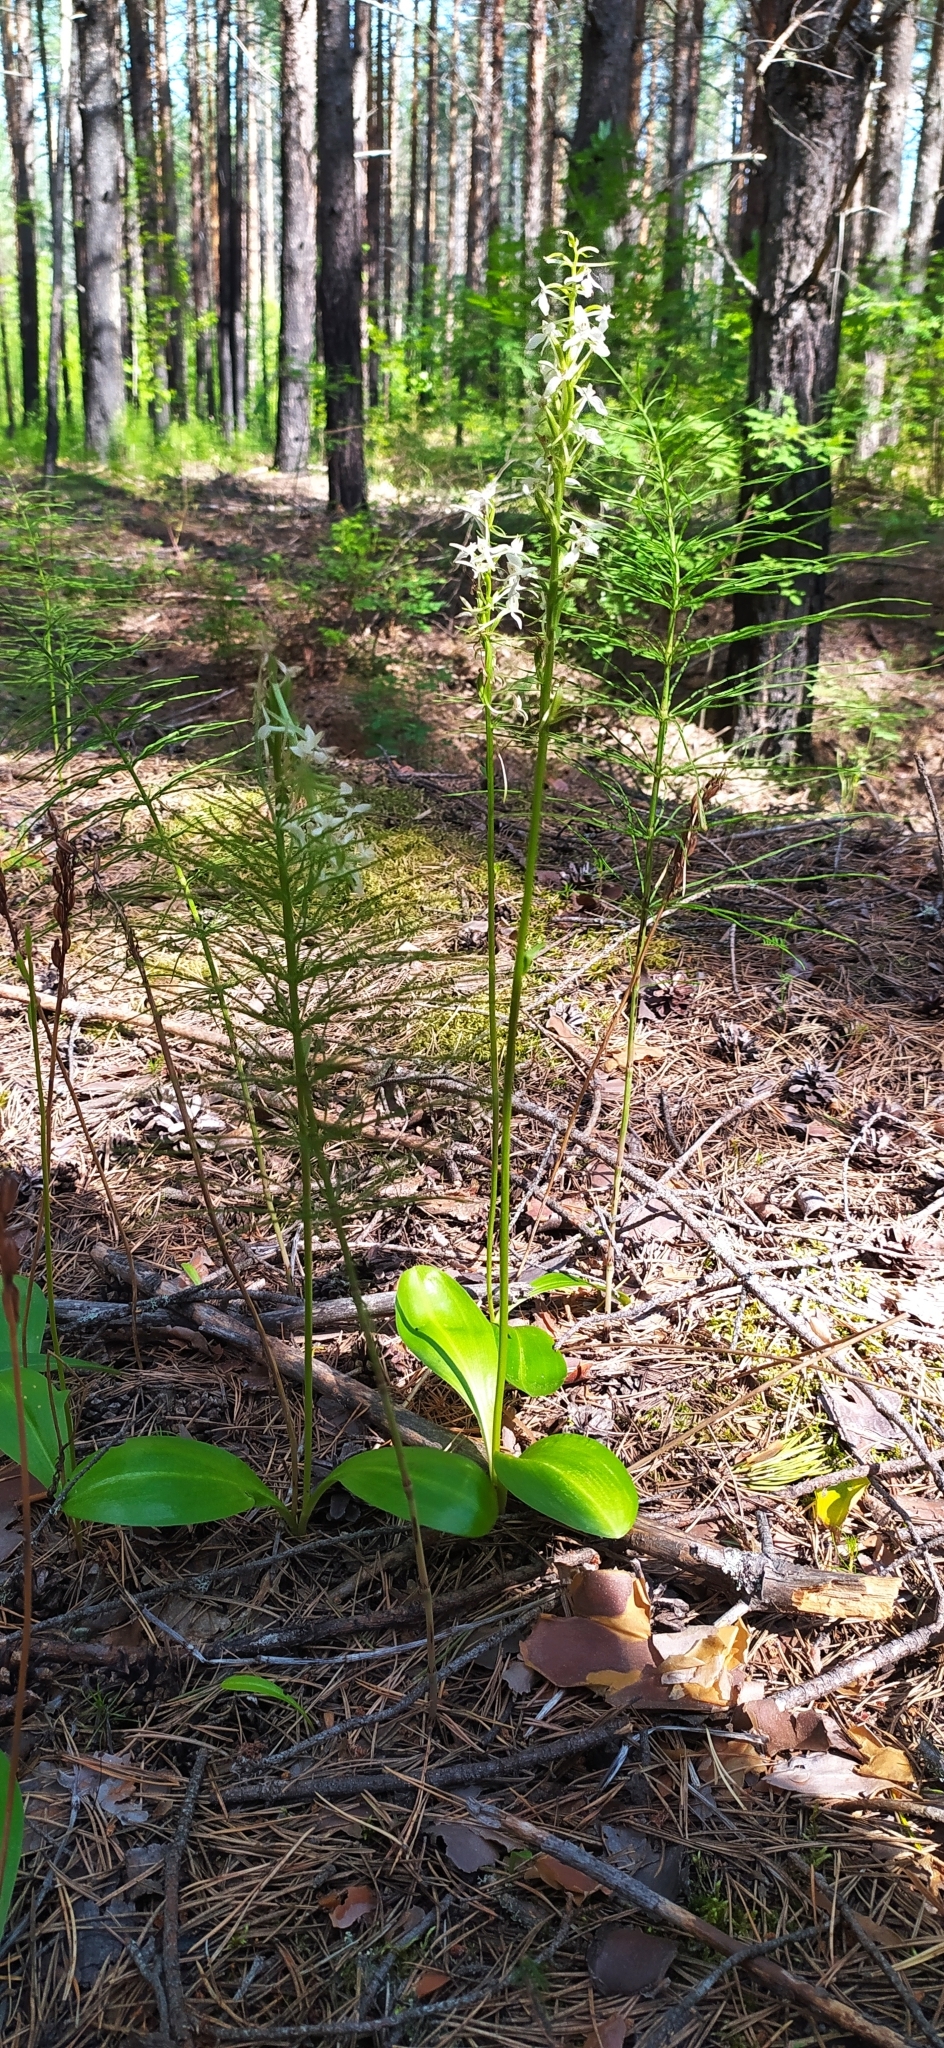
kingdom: Plantae
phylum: Tracheophyta
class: Liliopsida
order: Asparagales
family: Orchidaceae
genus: Platanthera
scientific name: Platanthera bifolia
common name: Lesser butterfly-orchid
